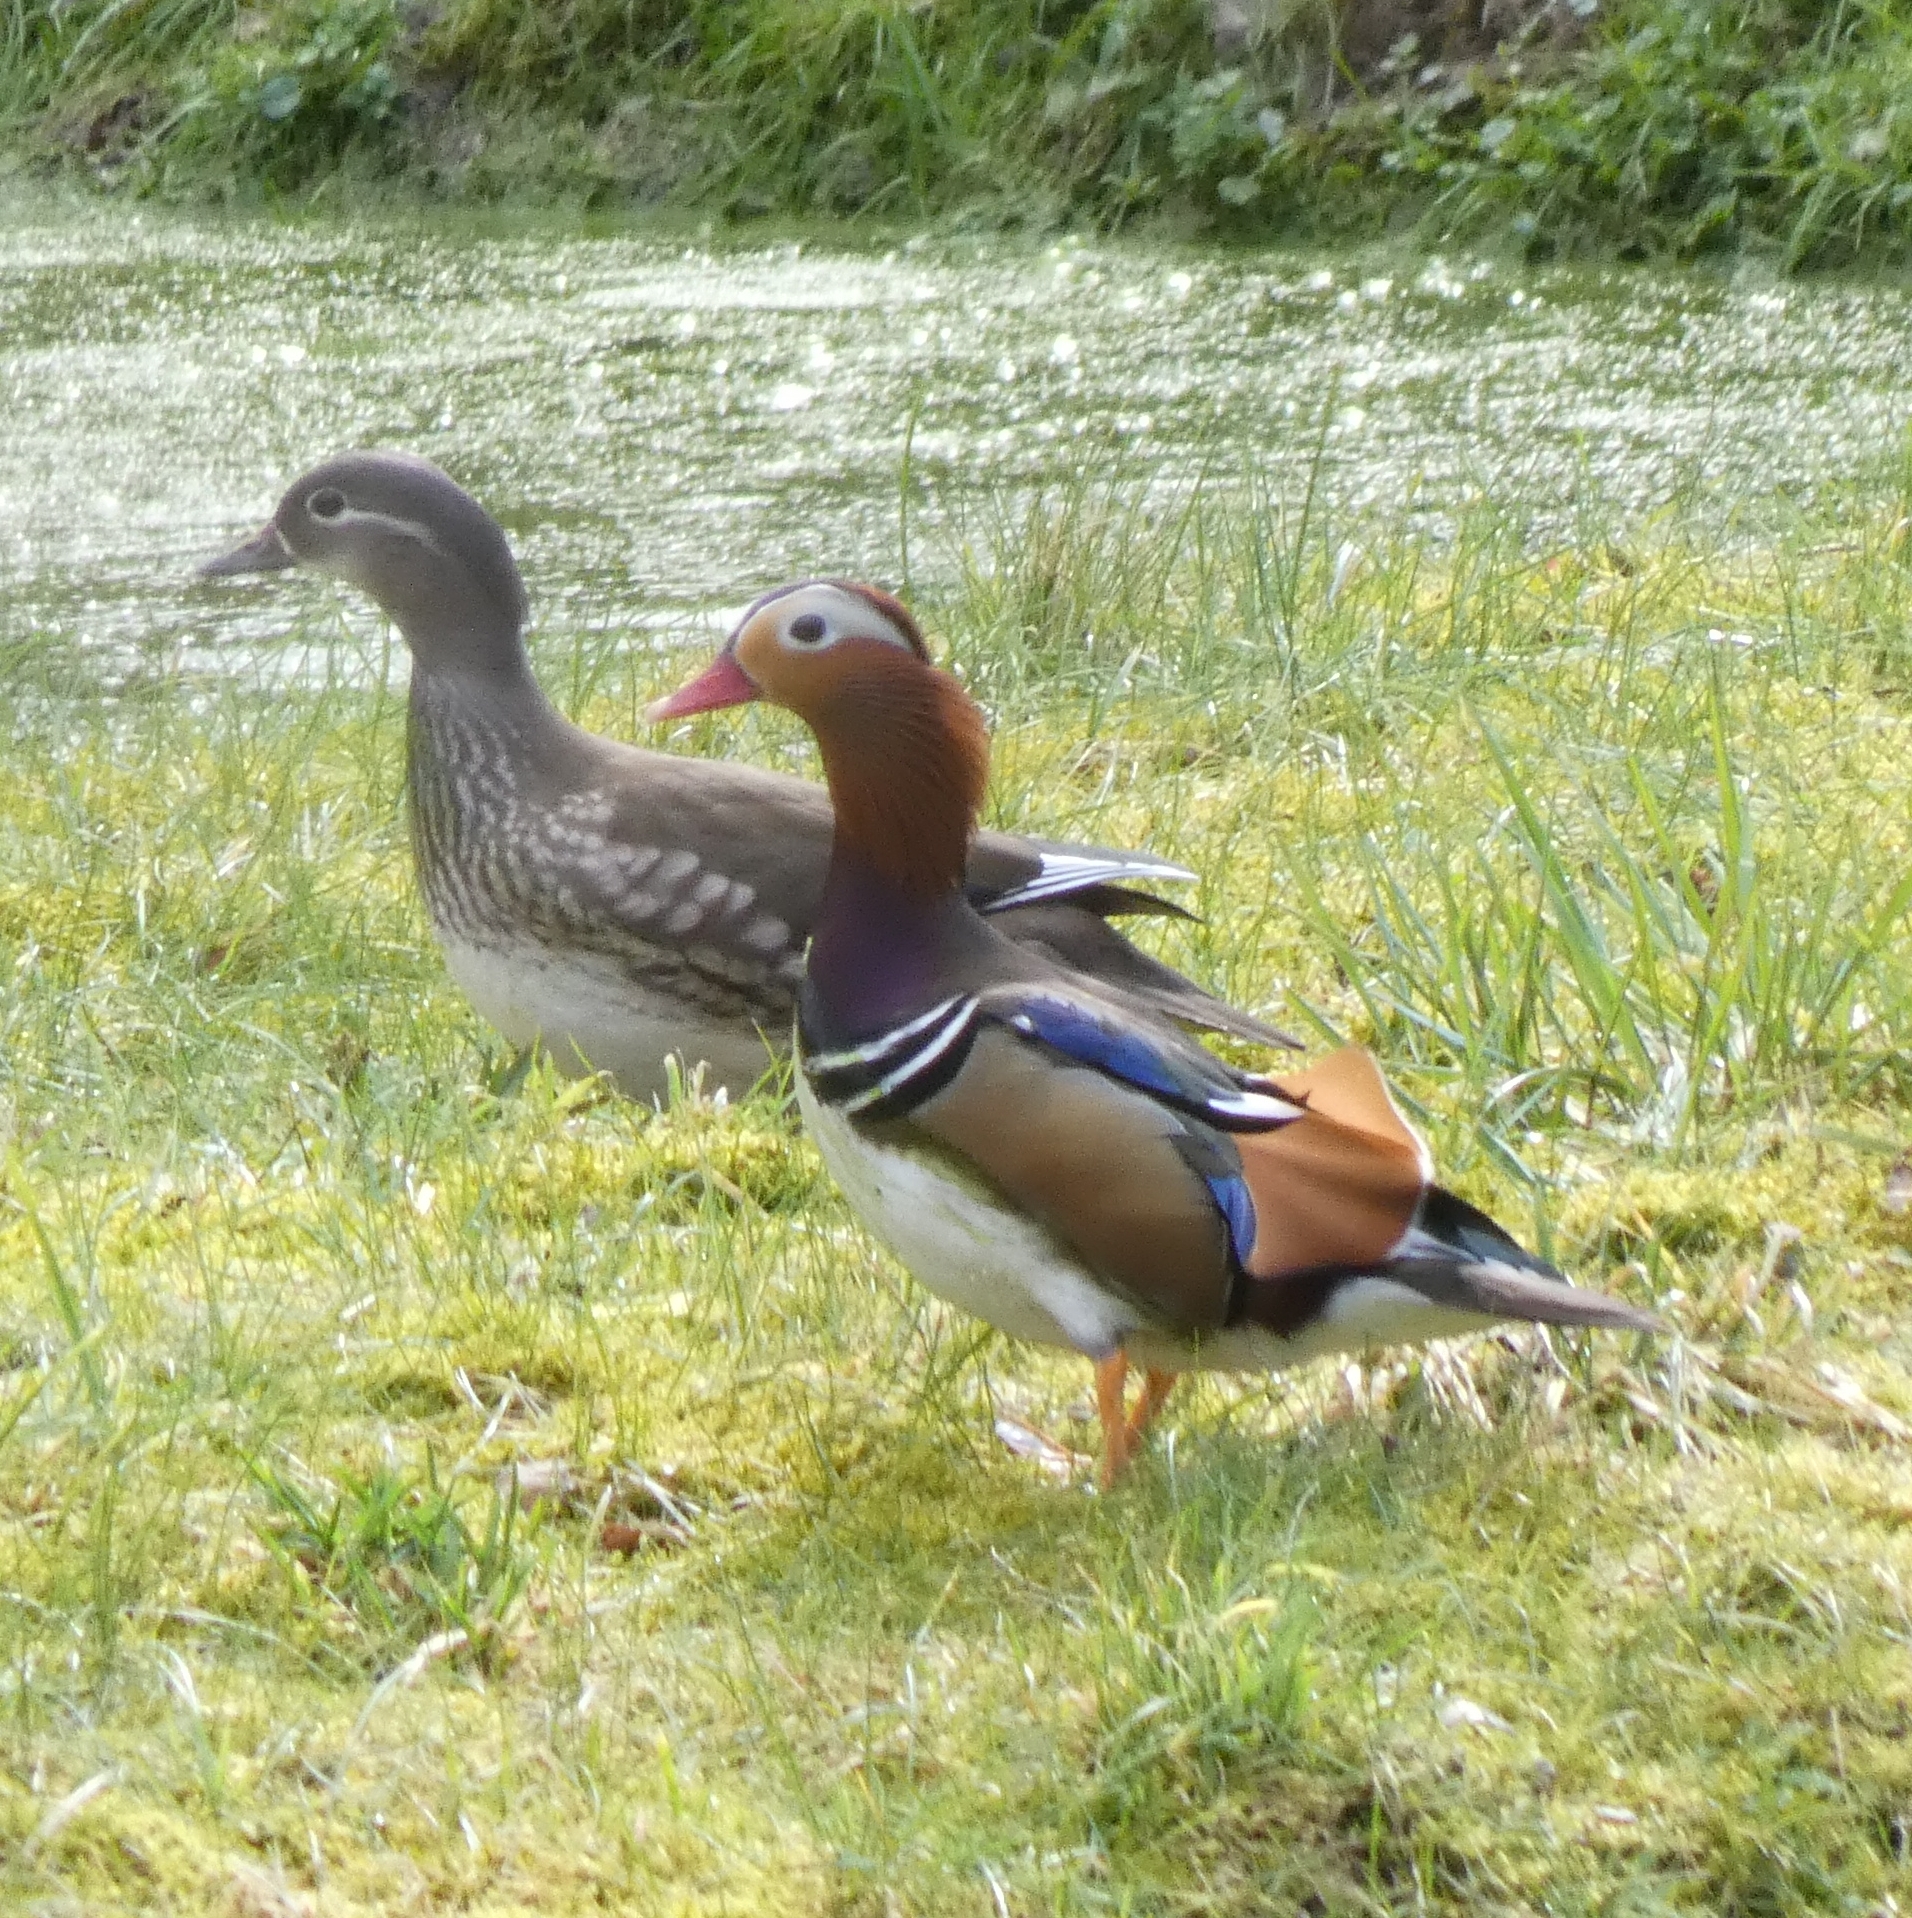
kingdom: Animalia
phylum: Chordata
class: Aves
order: Anseriformes
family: Anatidae
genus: Aix
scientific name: Aix galericulata
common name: Mandarin duck
